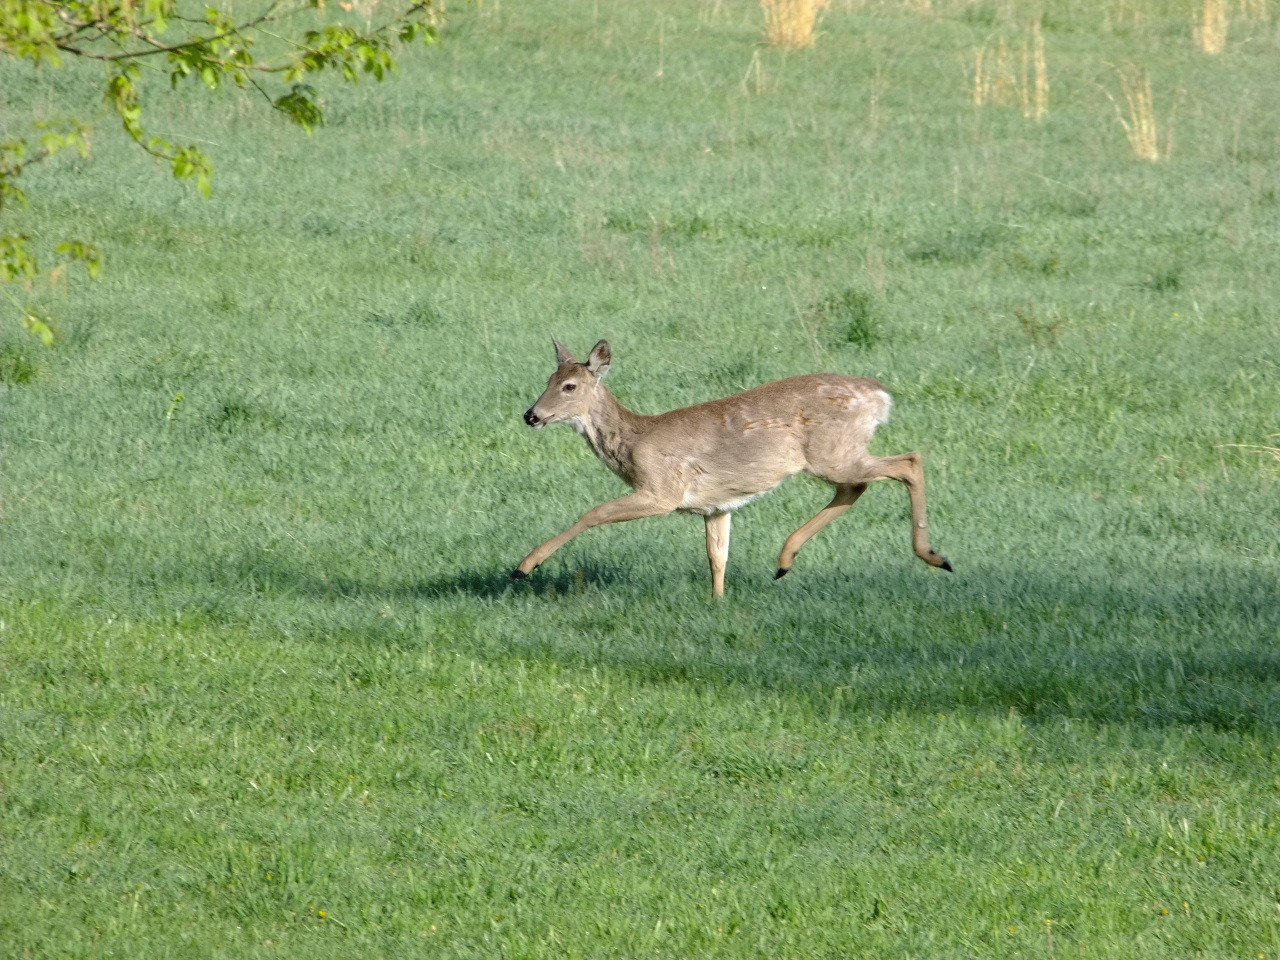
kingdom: Animalia
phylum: Chordata
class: Mammalia
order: Artiodactyla
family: Cervidae
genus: Odocoileus
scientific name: Odocoileus virginianus
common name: White-tailed deer
